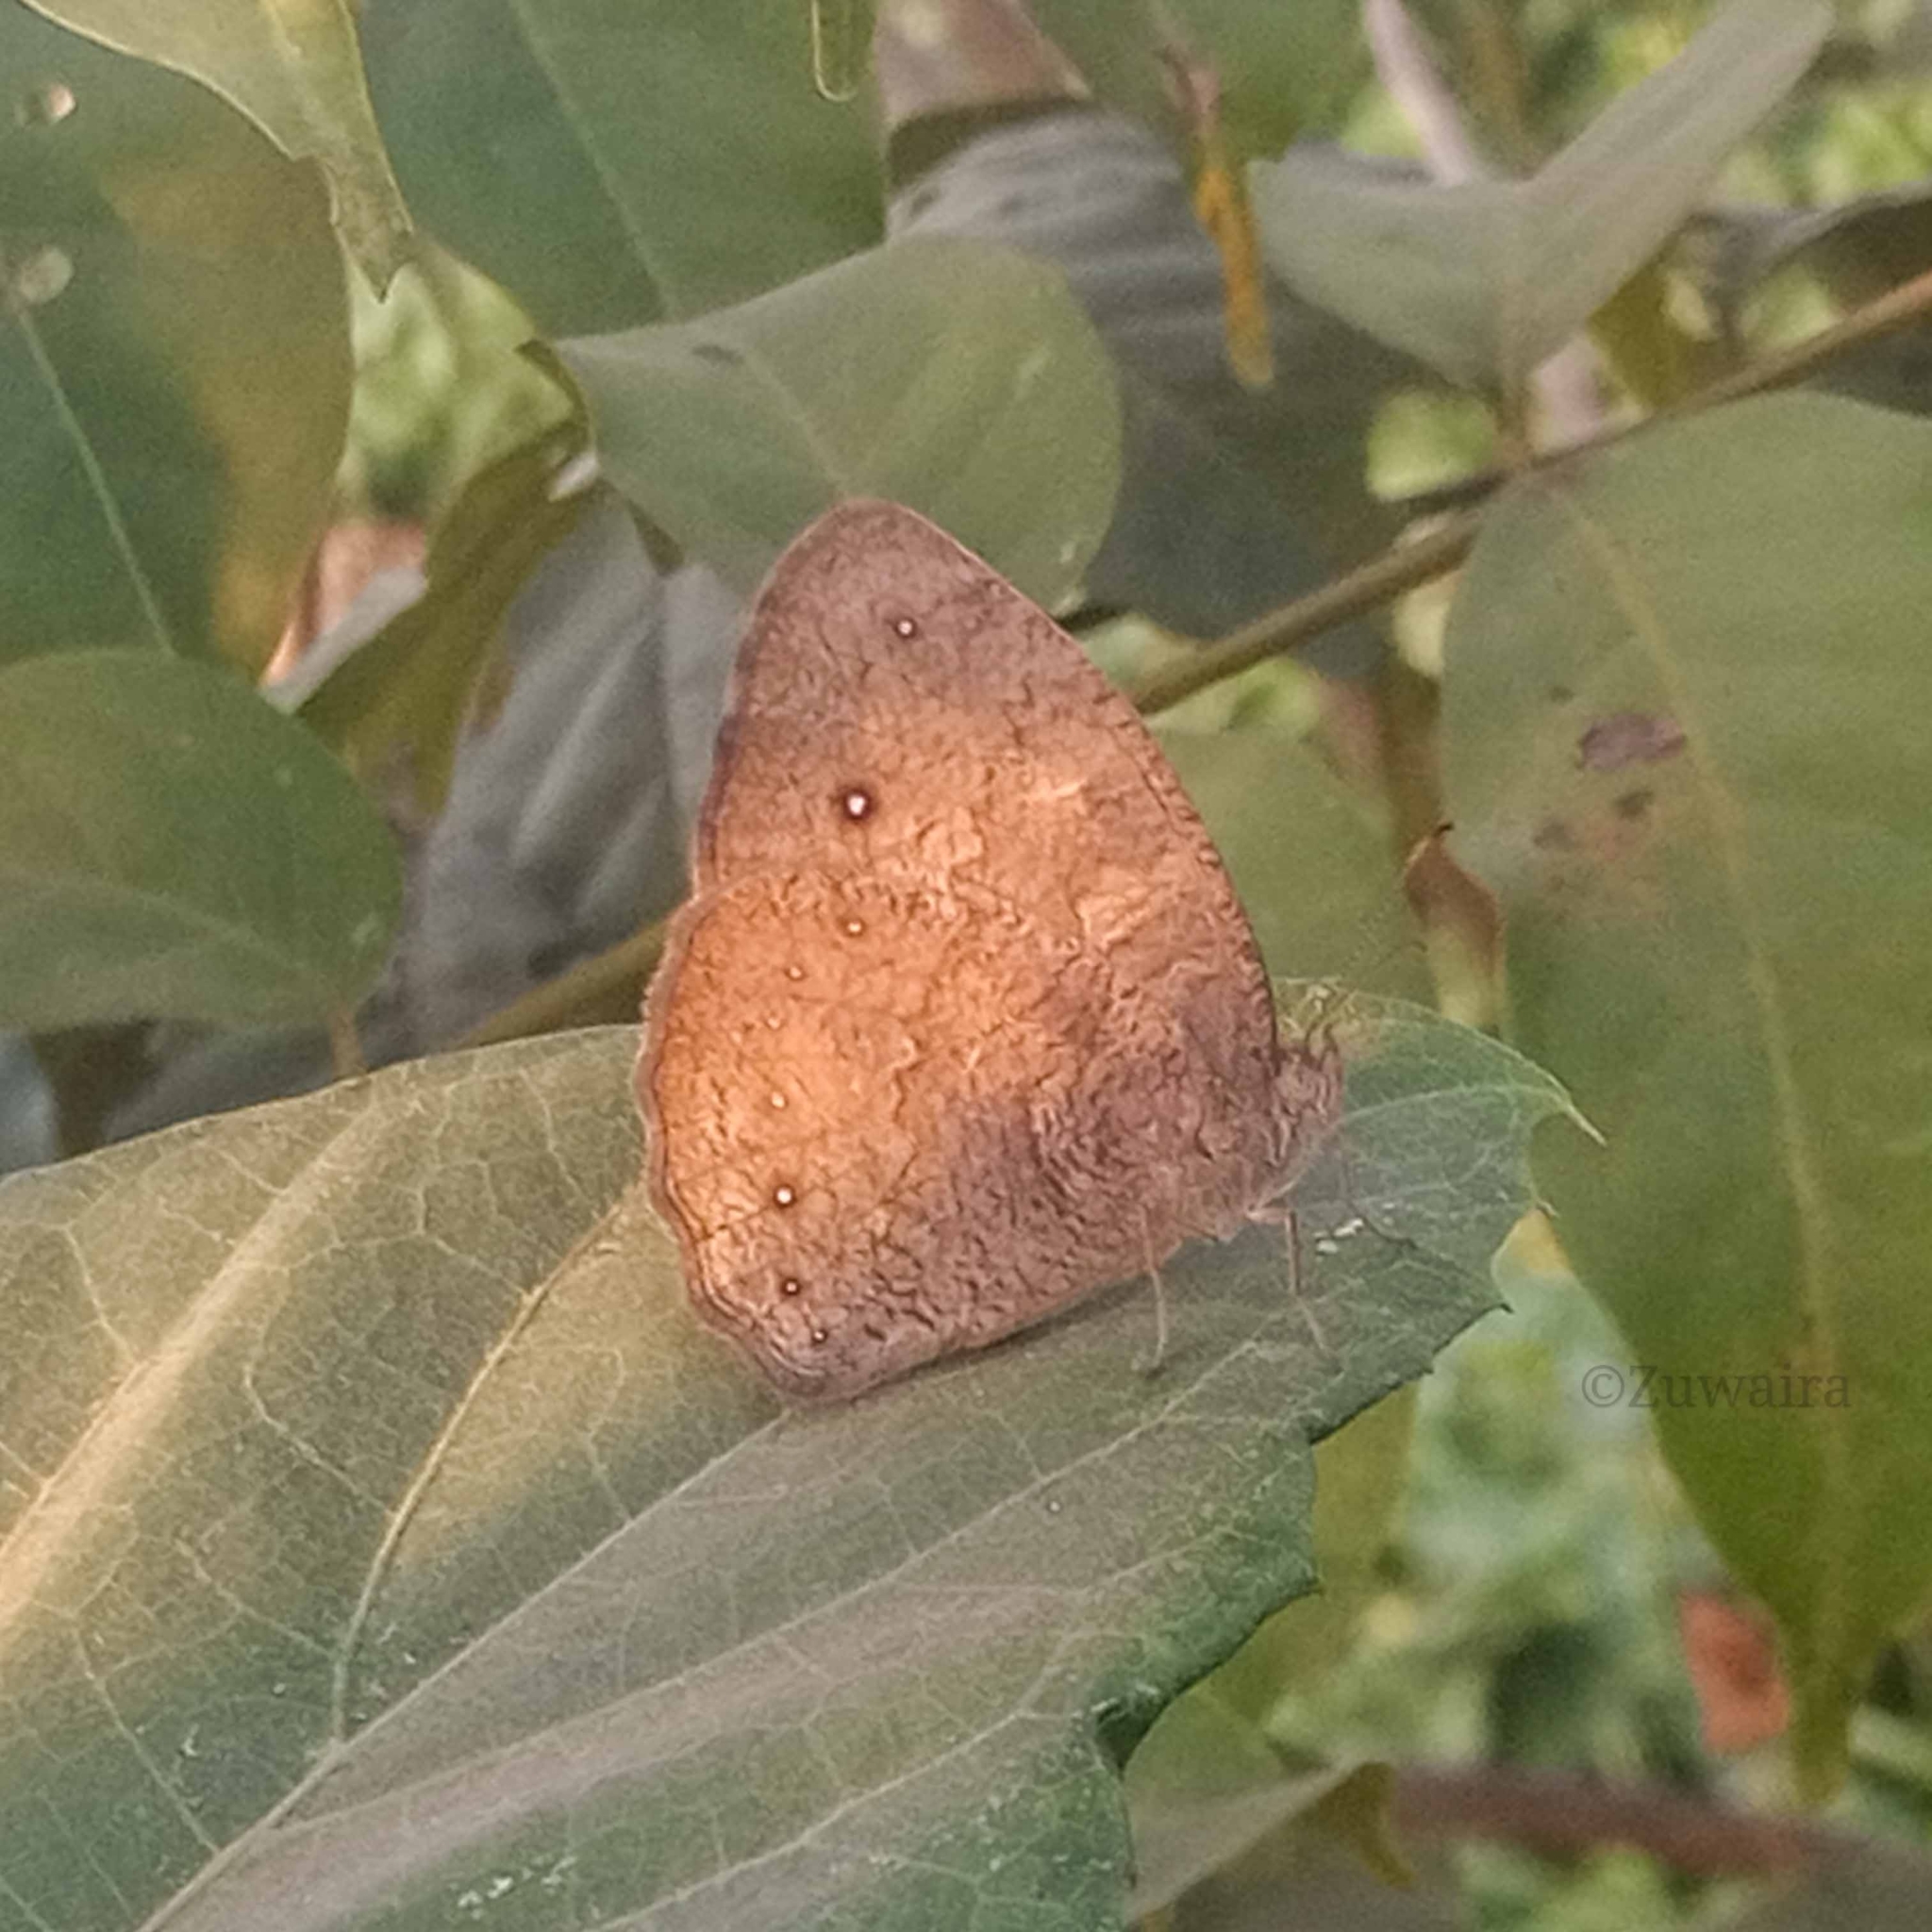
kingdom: Animalia
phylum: Arthropoda
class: Insecta
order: Lepidoptera
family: Nymphalidae
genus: Mycalesis
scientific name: Mycalesis vulgaris
